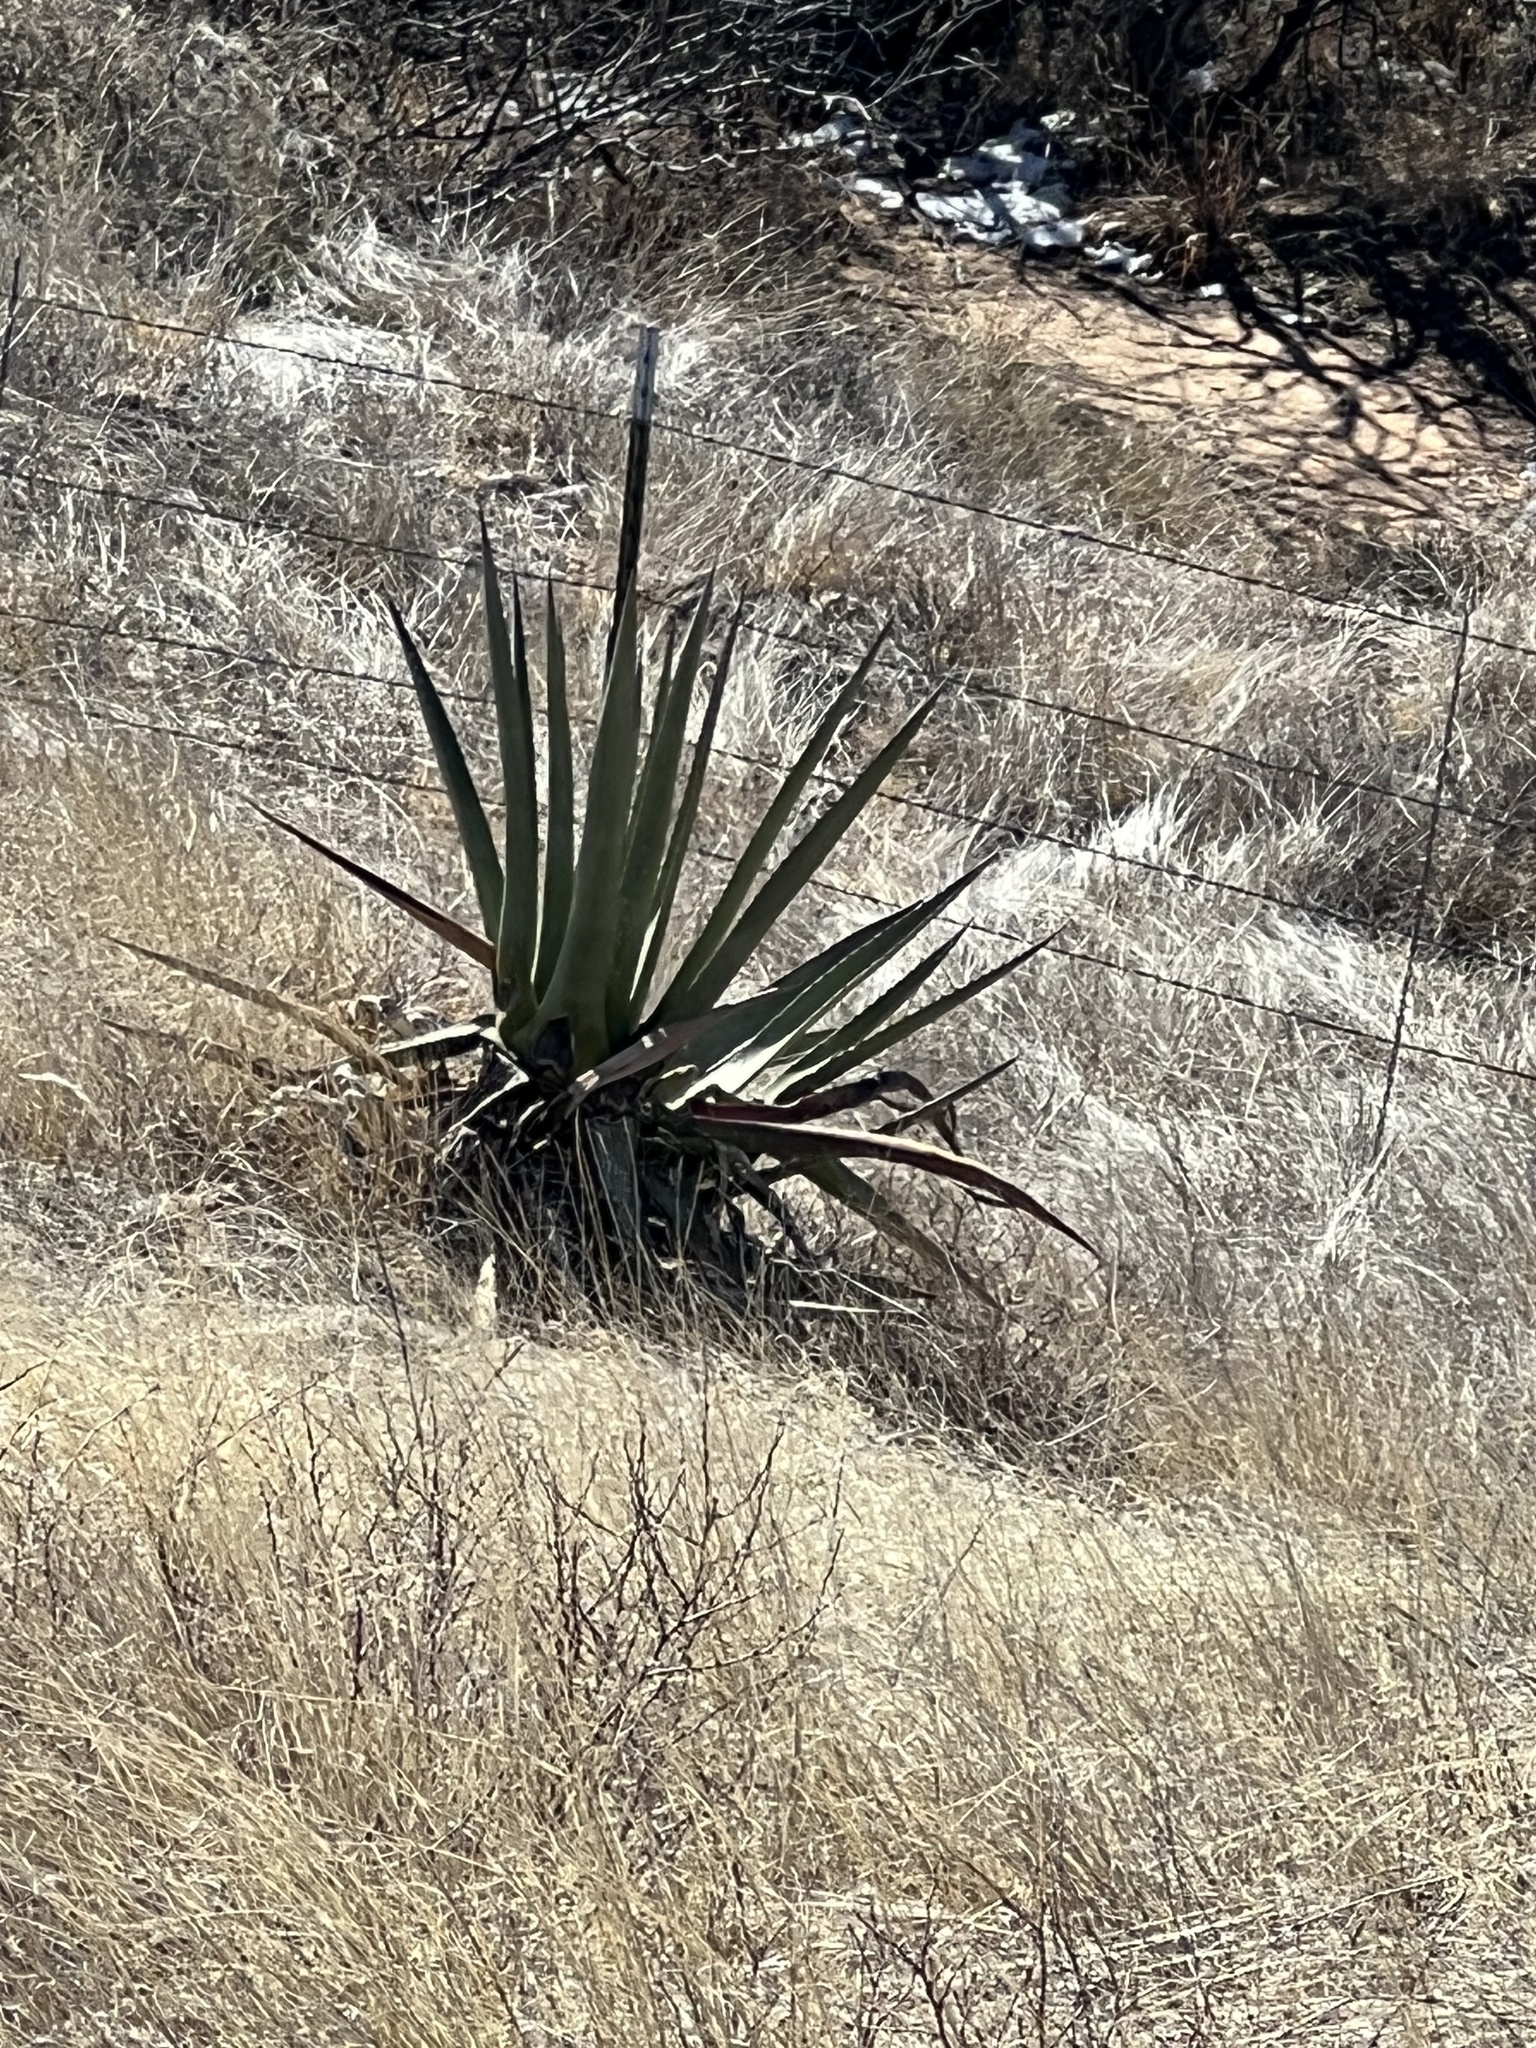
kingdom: Plantae
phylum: Tracheophyta
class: Liliopsida
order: Asparagales
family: Asparagaceae
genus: Agave
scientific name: Agave palmeri
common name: Palmer agave
